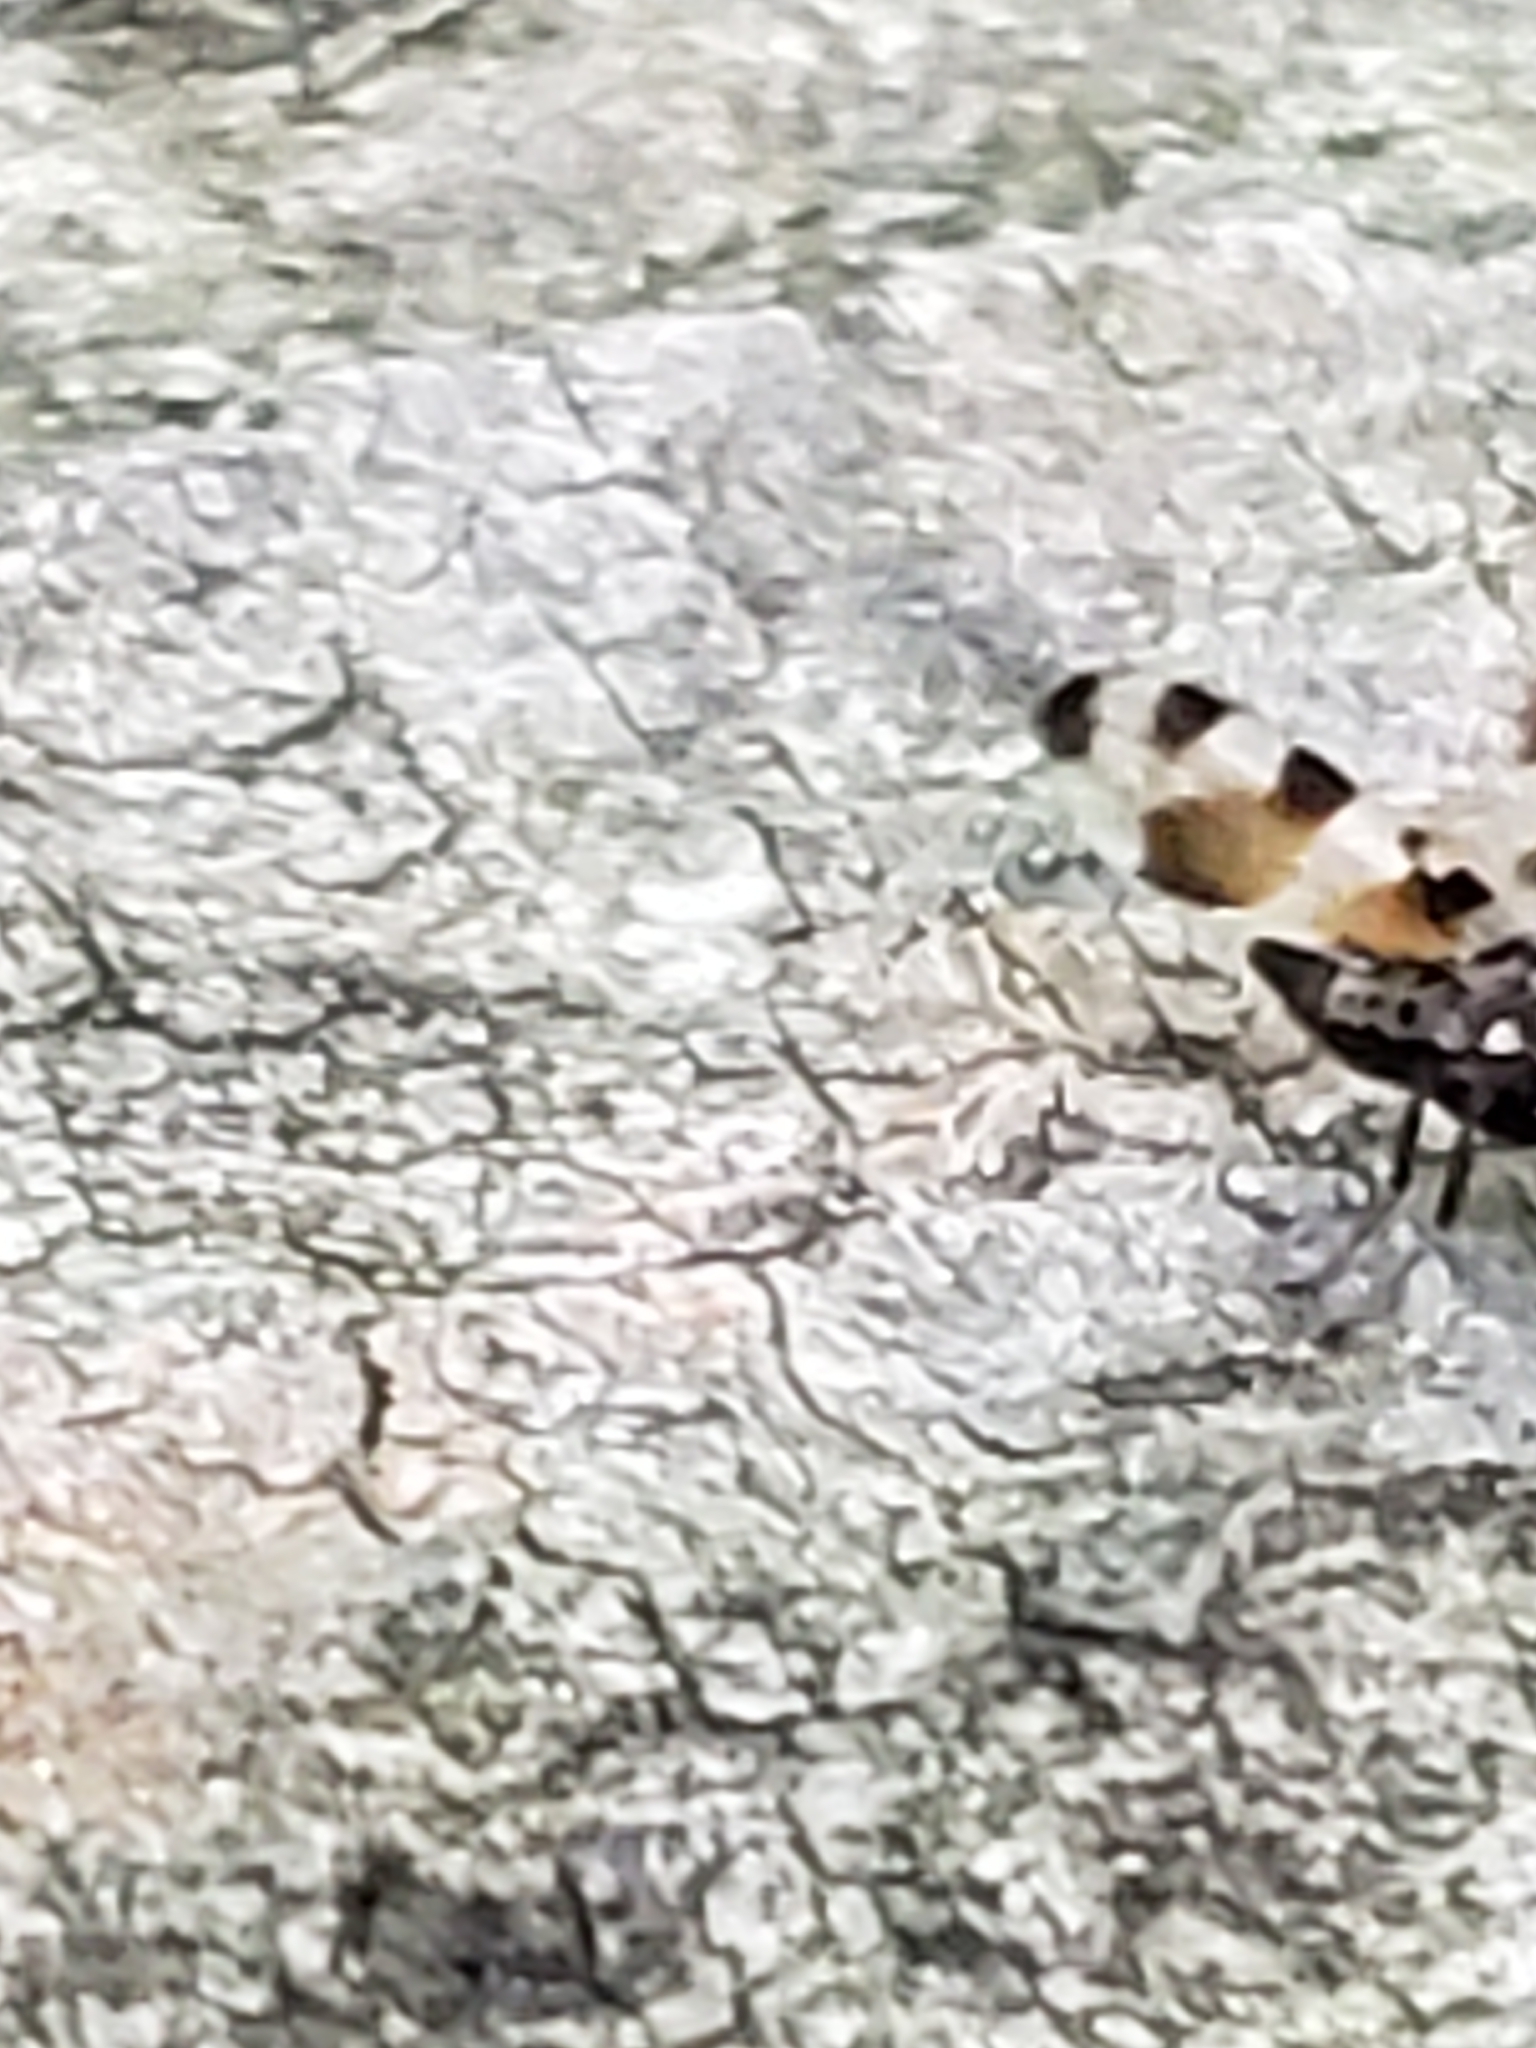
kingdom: Animalia
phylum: Arthropoda
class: Insecta
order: Diptera
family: Ulidiidae
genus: Pseudotephritis
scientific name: Pseudotephritis vau
